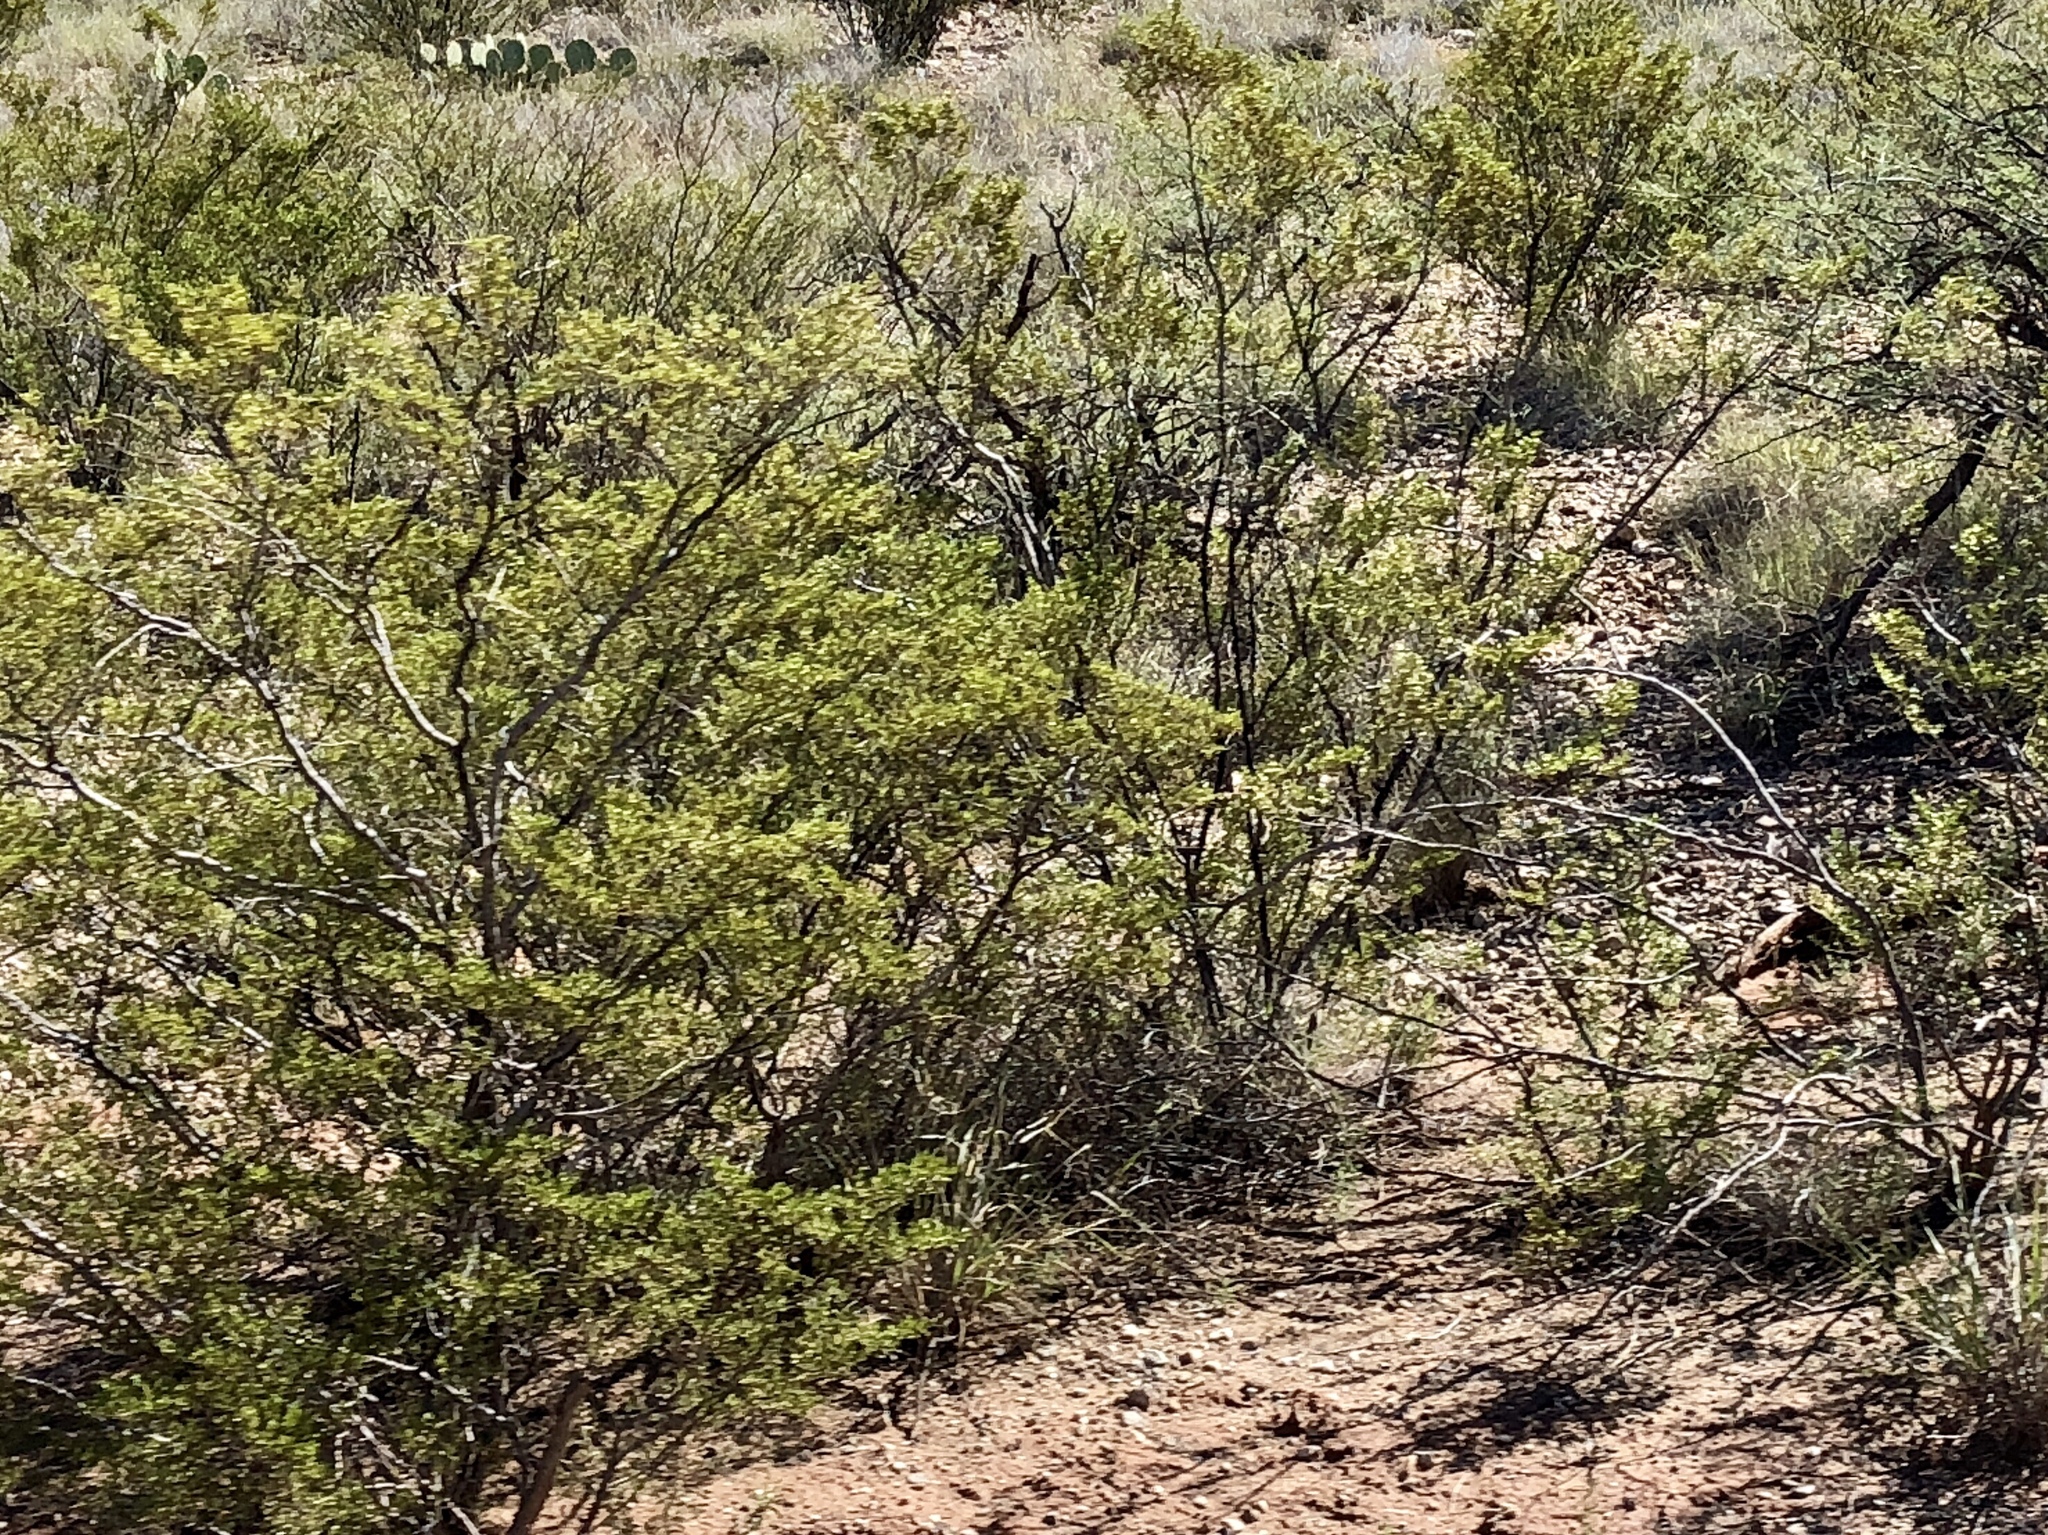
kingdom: Plantae
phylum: Tracheophyta
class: Magnoliopsida
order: Zygophyllales
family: Zygophyllaceae
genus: Larrea
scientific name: Larrea tridentata
